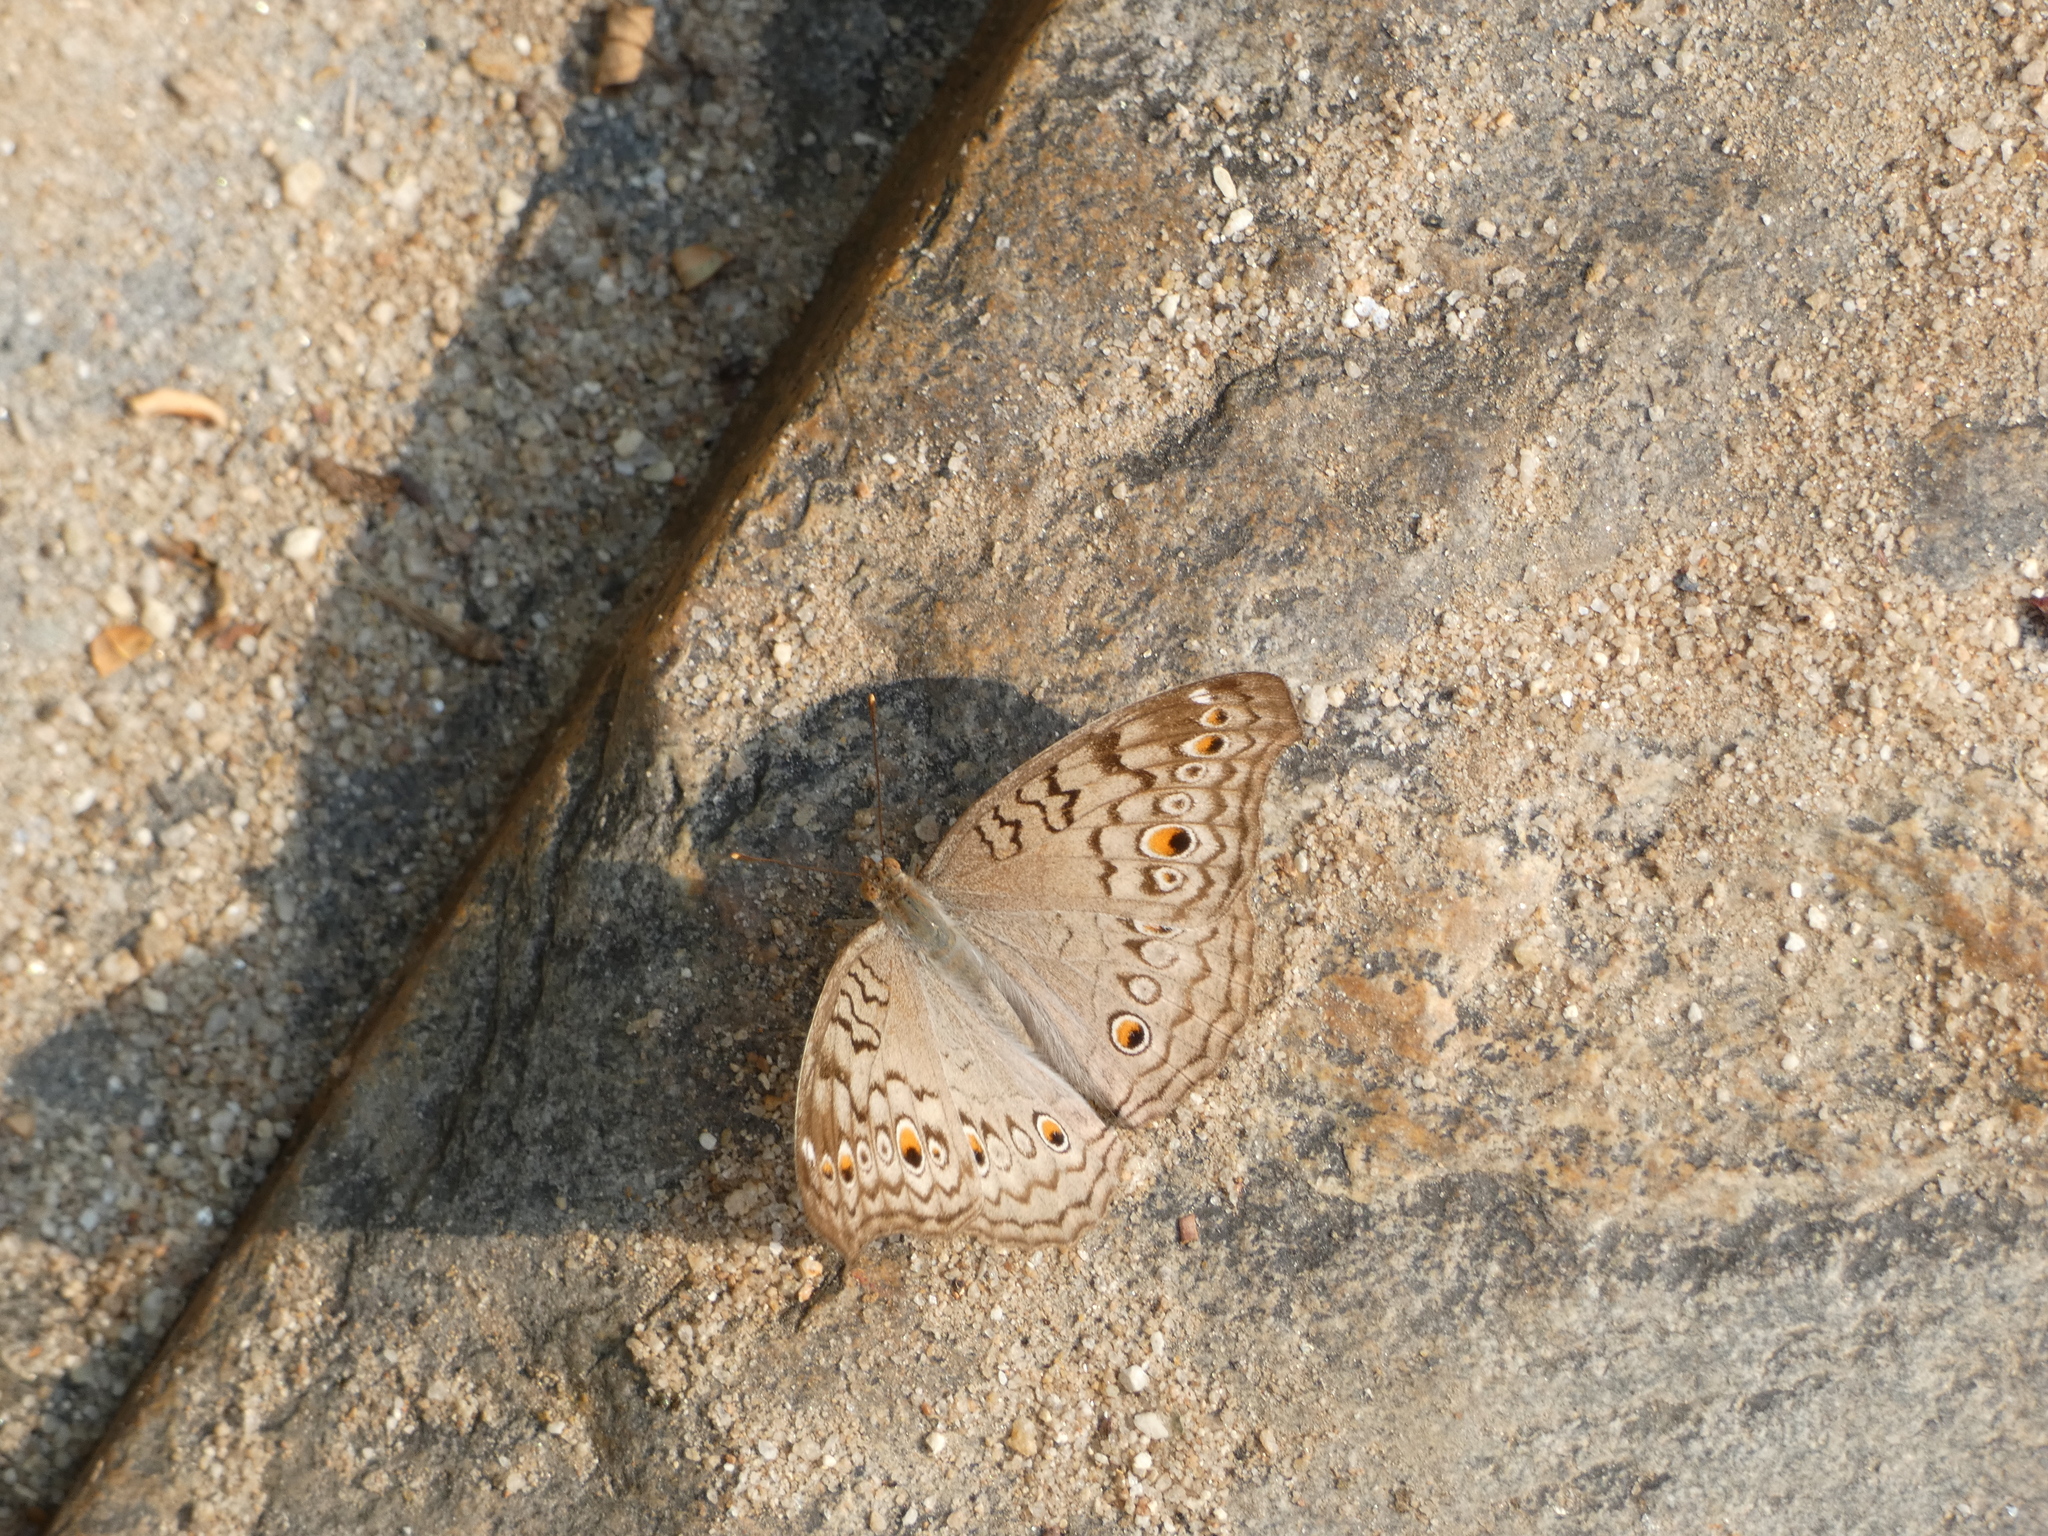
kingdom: Animalia
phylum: Arthropoda
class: Insecta
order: Lepidoptera
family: Nymphalidae
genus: Junonia
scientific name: Junonia atlites
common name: Grey pansy
